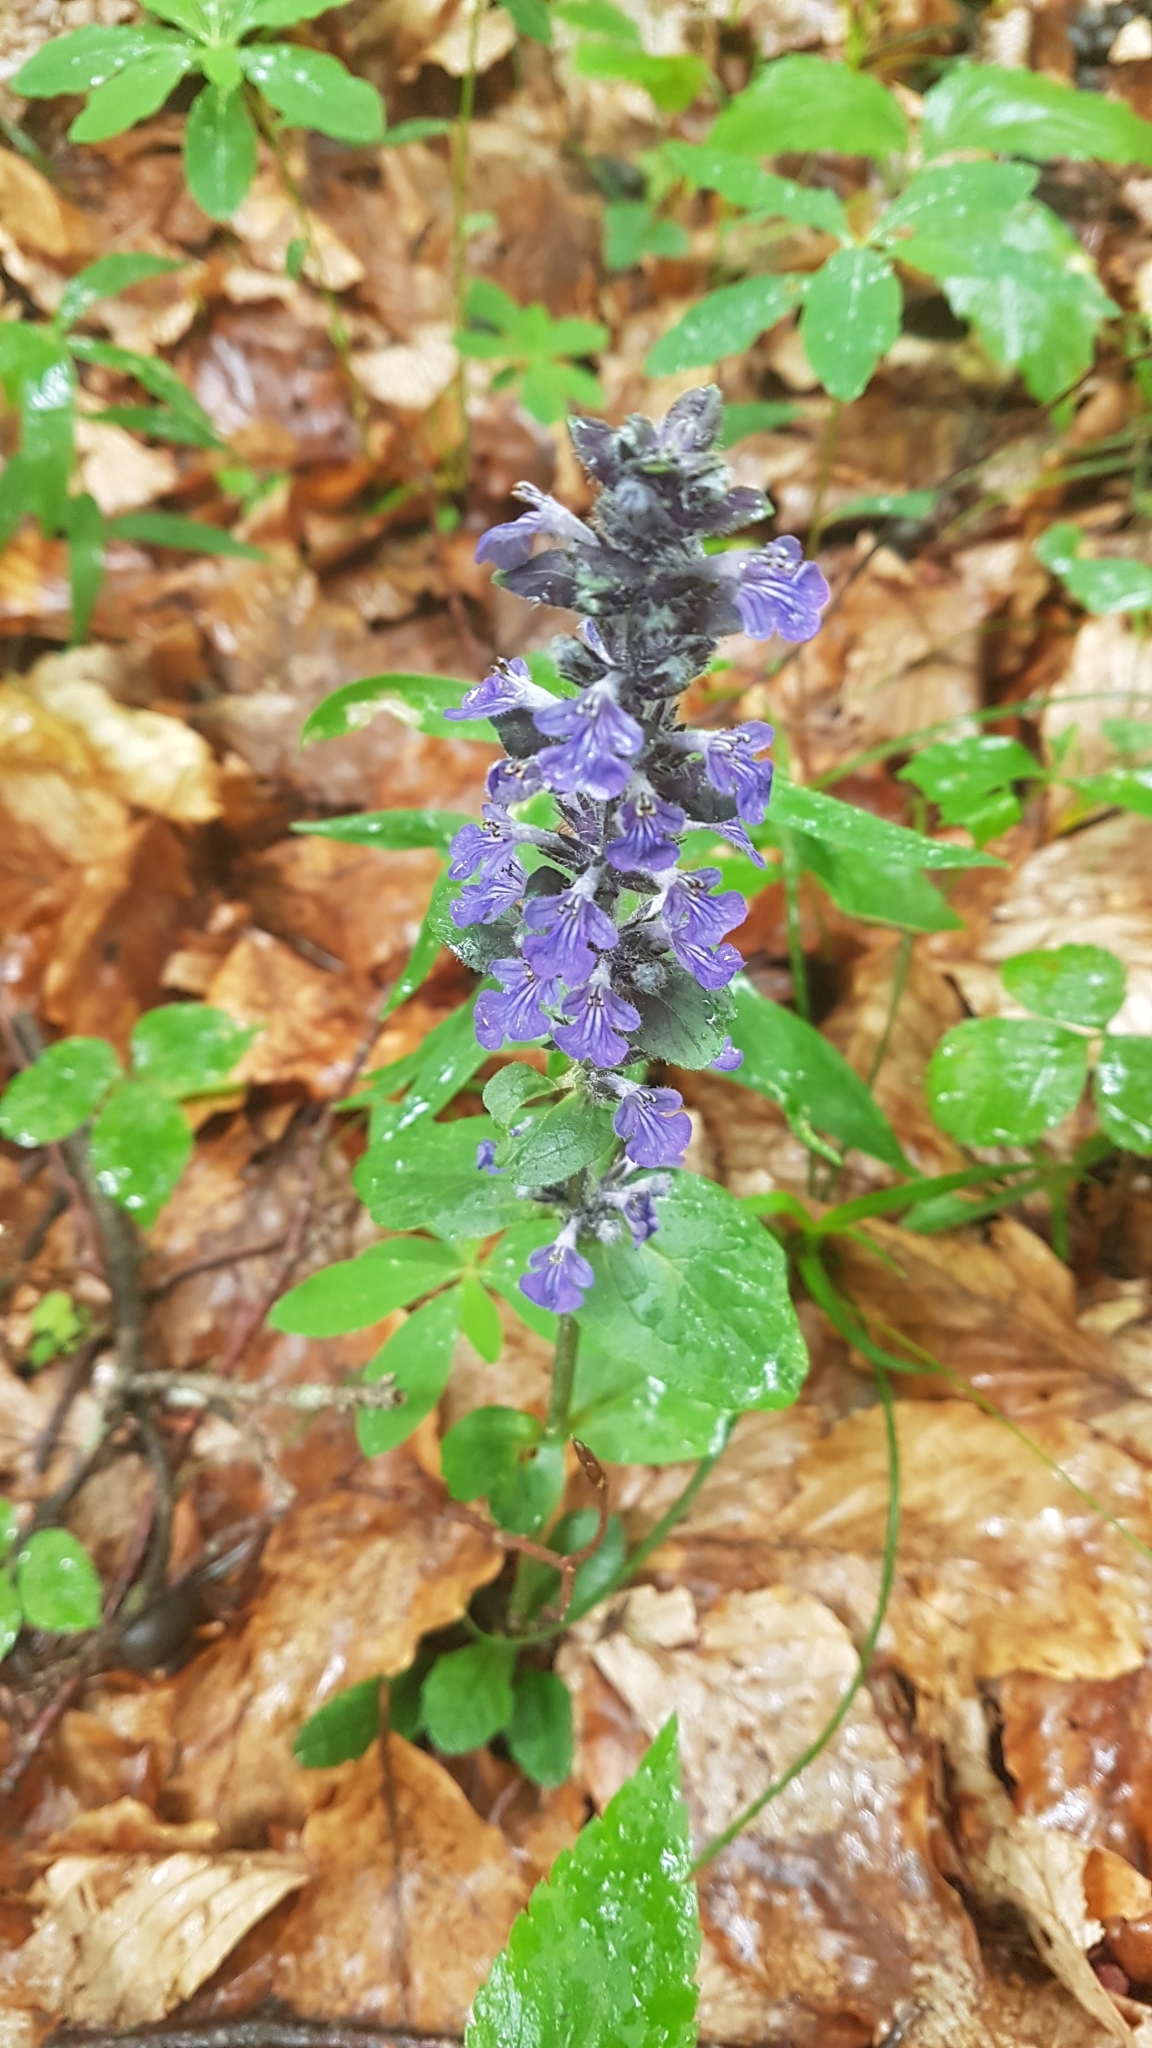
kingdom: Plantae
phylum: Tracheophyta
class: Magnoliopsida
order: Lamiales
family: Lamiaceae
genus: Ajuga
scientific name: Ajuga reptans
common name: Bugle
